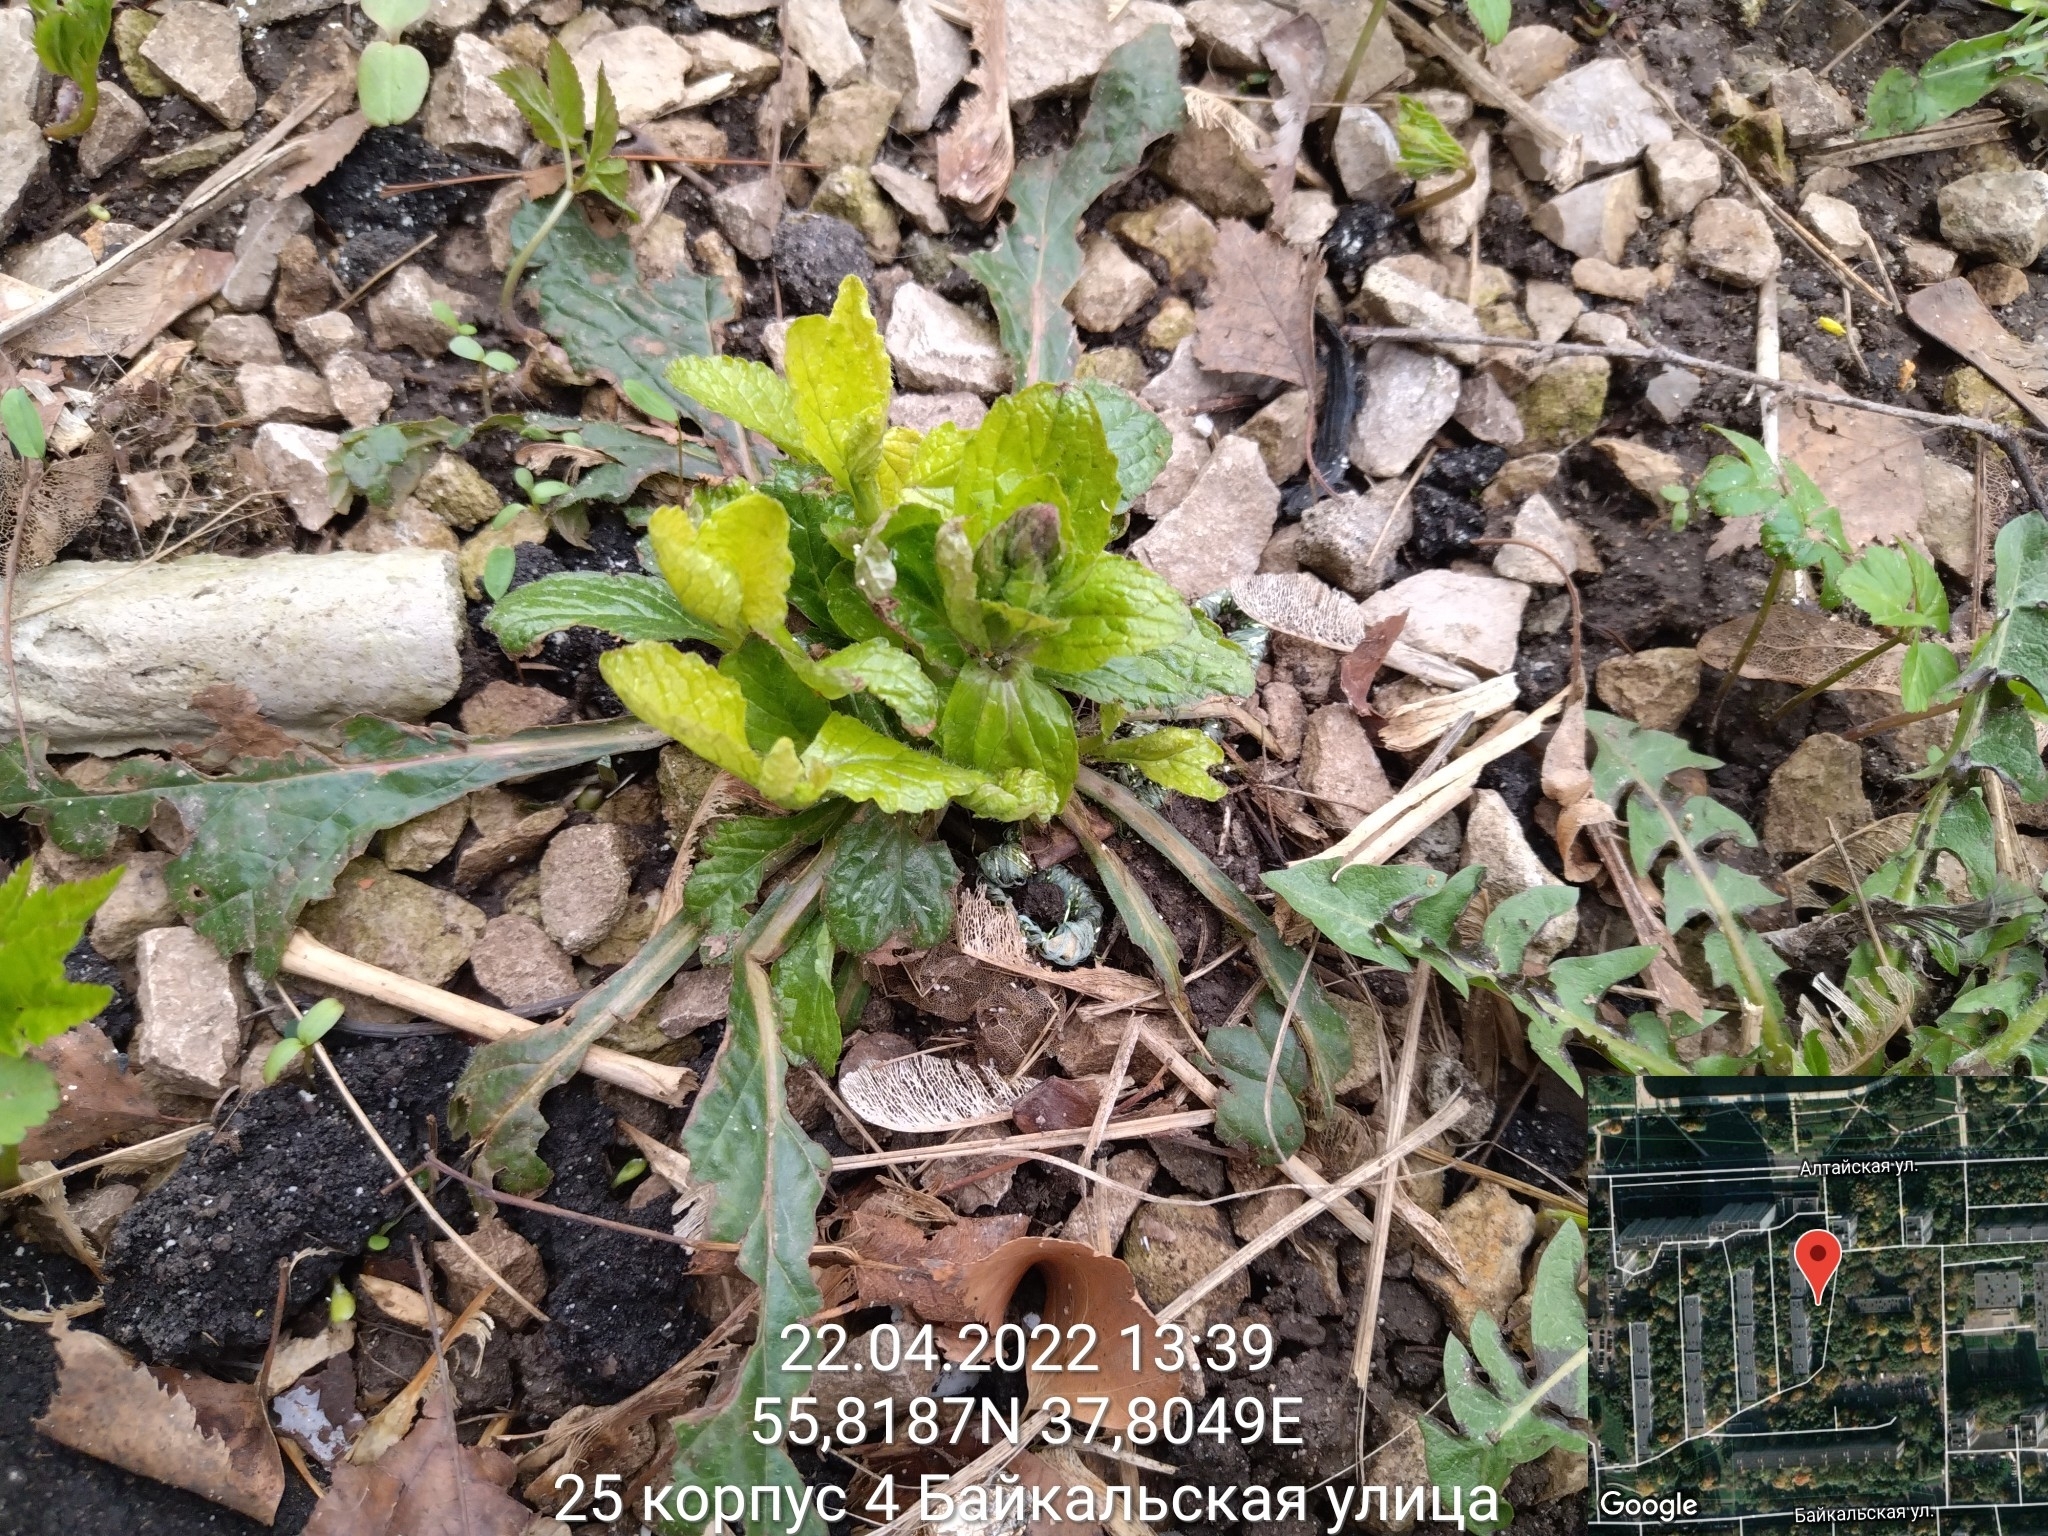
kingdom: Plantae
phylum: Tracheophyta
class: Magnoliopsida
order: Lamiales
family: Lamiaceae
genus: Ajuga
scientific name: Ajuga reptans
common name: Bugle
